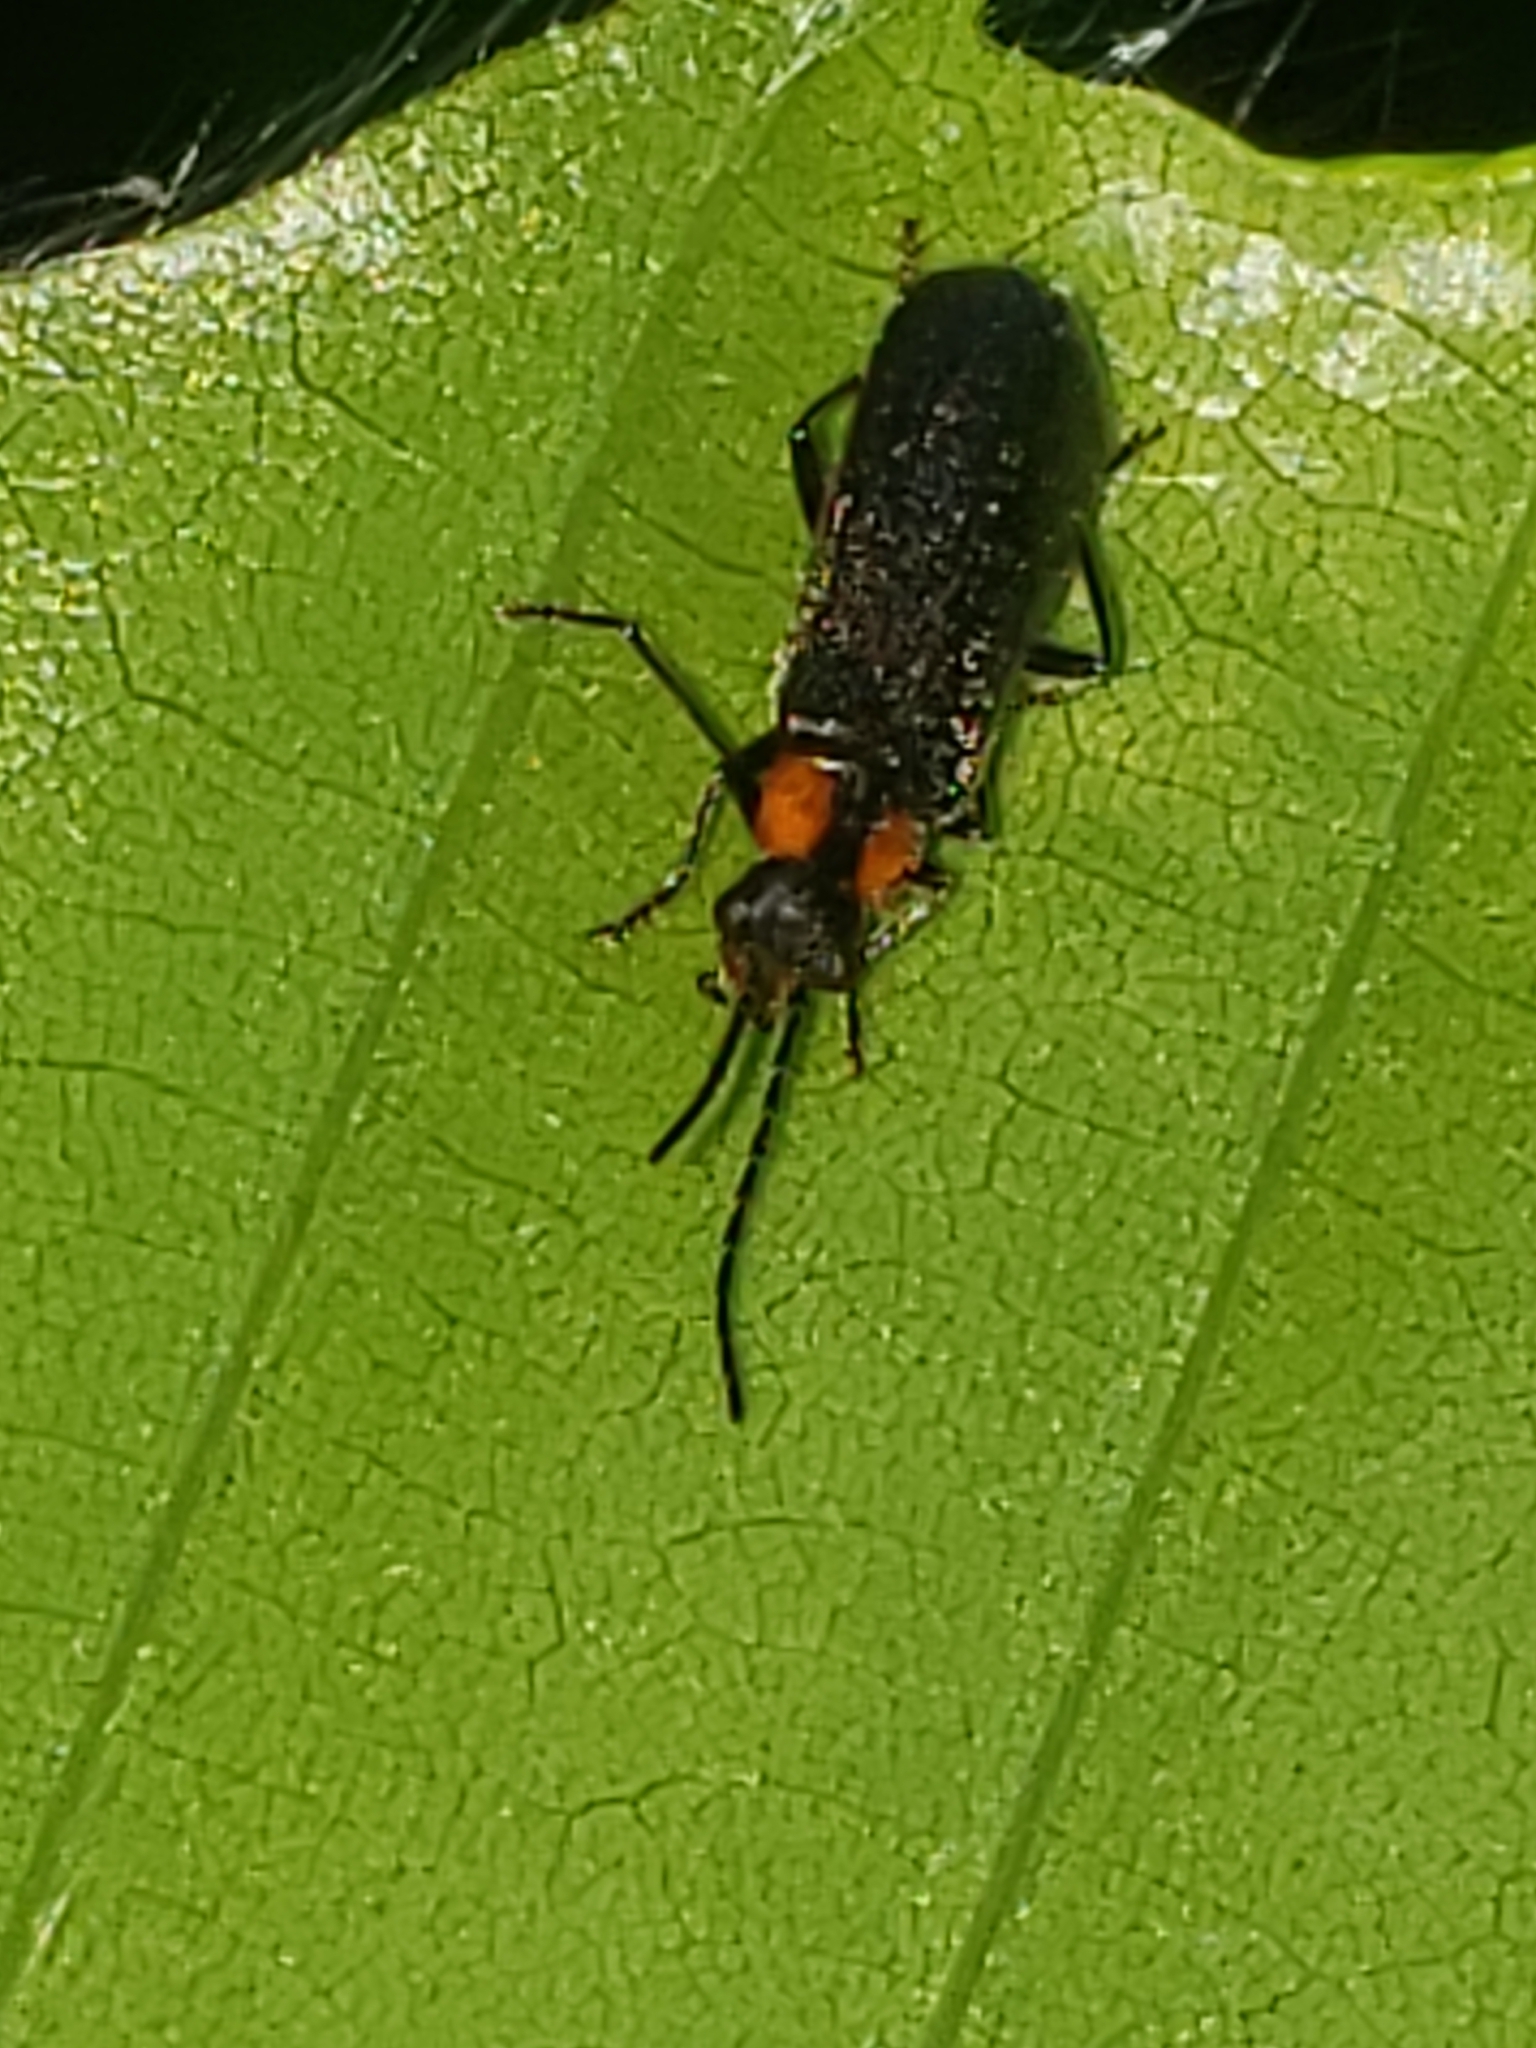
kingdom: Animalia
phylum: Arthropoda
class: Insecta
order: Coleoptera
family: Cantharidae
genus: Rhagonycha
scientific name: Rhagonycha lineola
